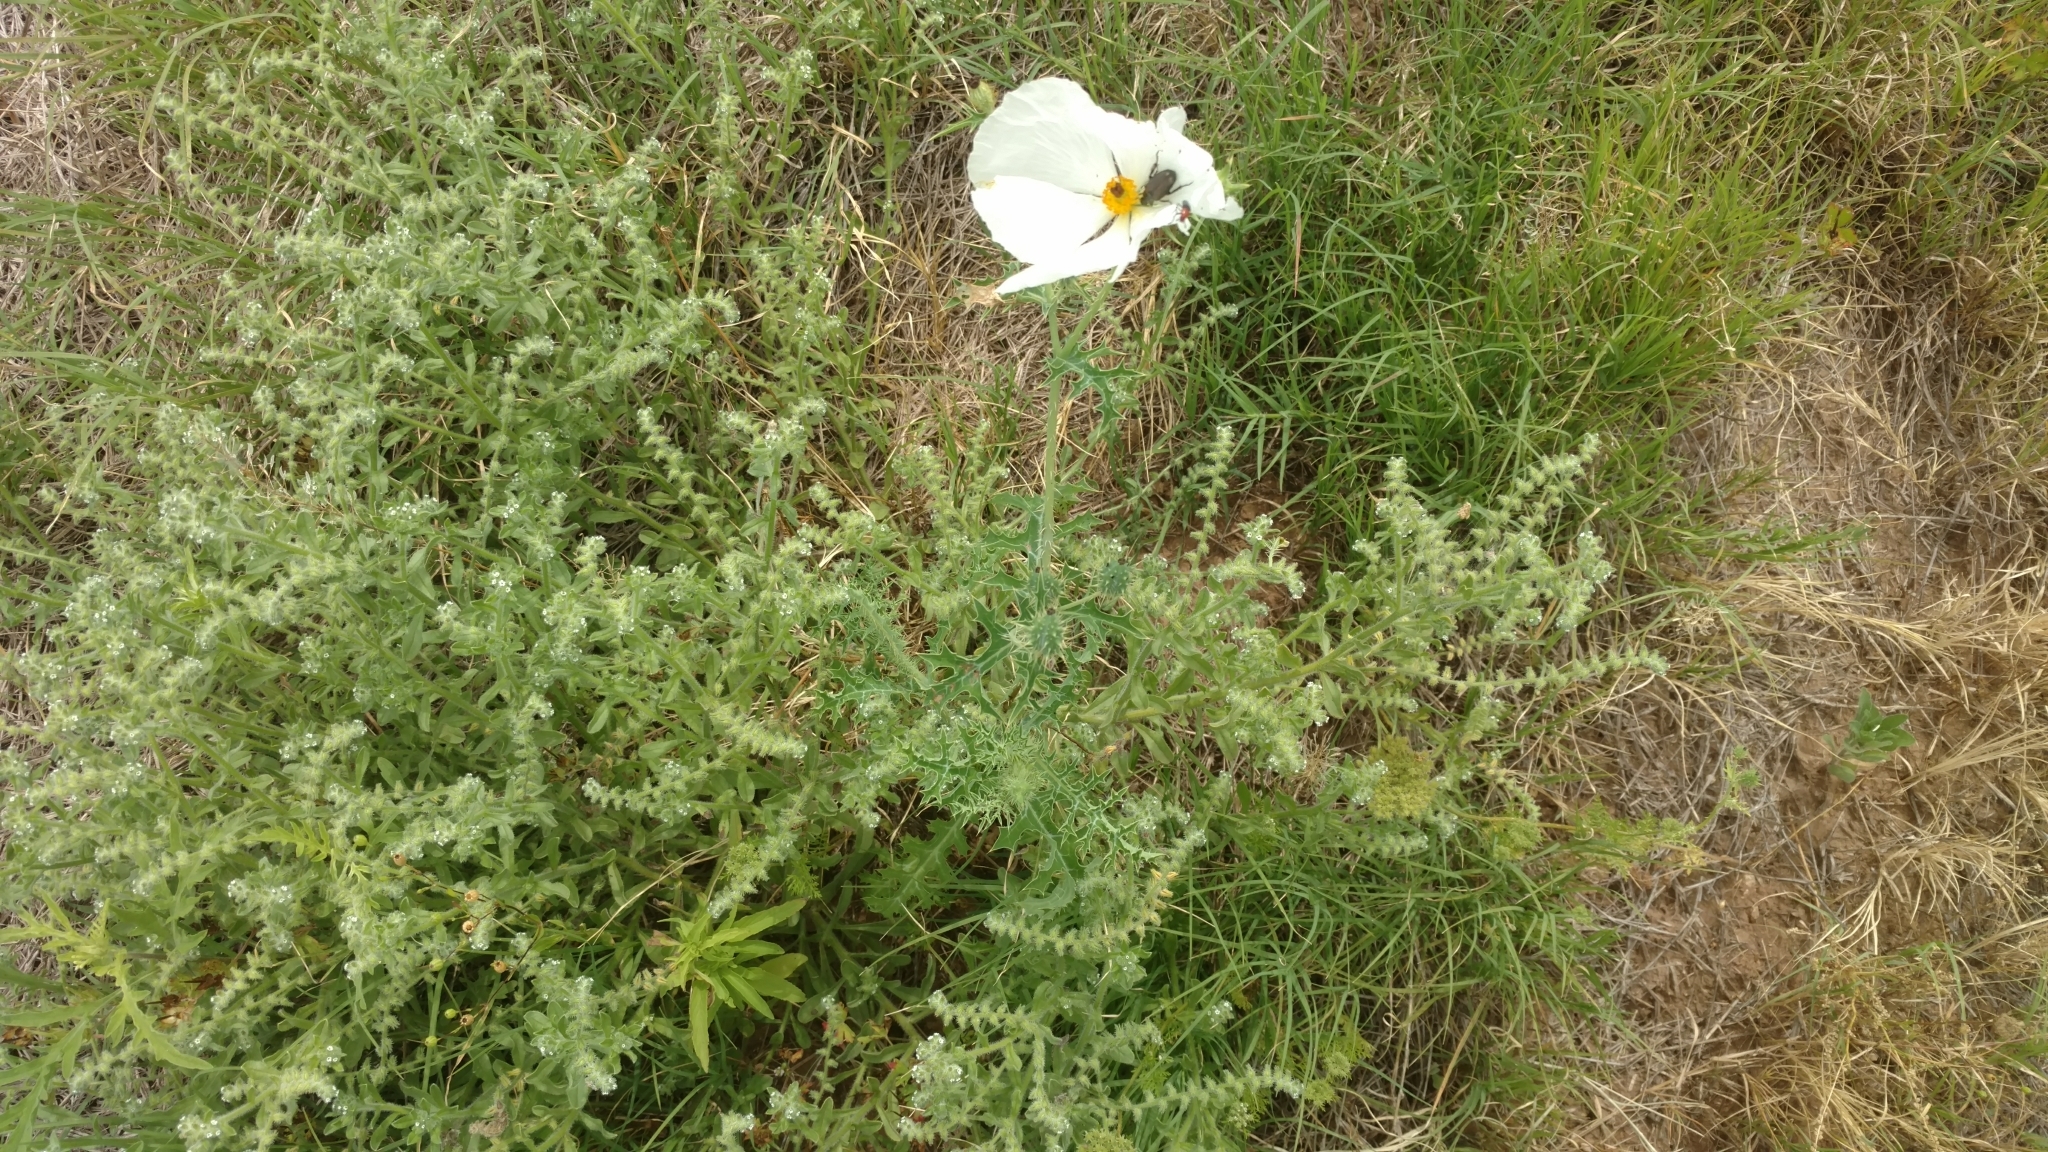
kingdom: Plantae
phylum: Tracheophyta
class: Magnoliopsida
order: Ranunculales
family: Papaveraceae
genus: Argemone
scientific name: Argemone albiflora
